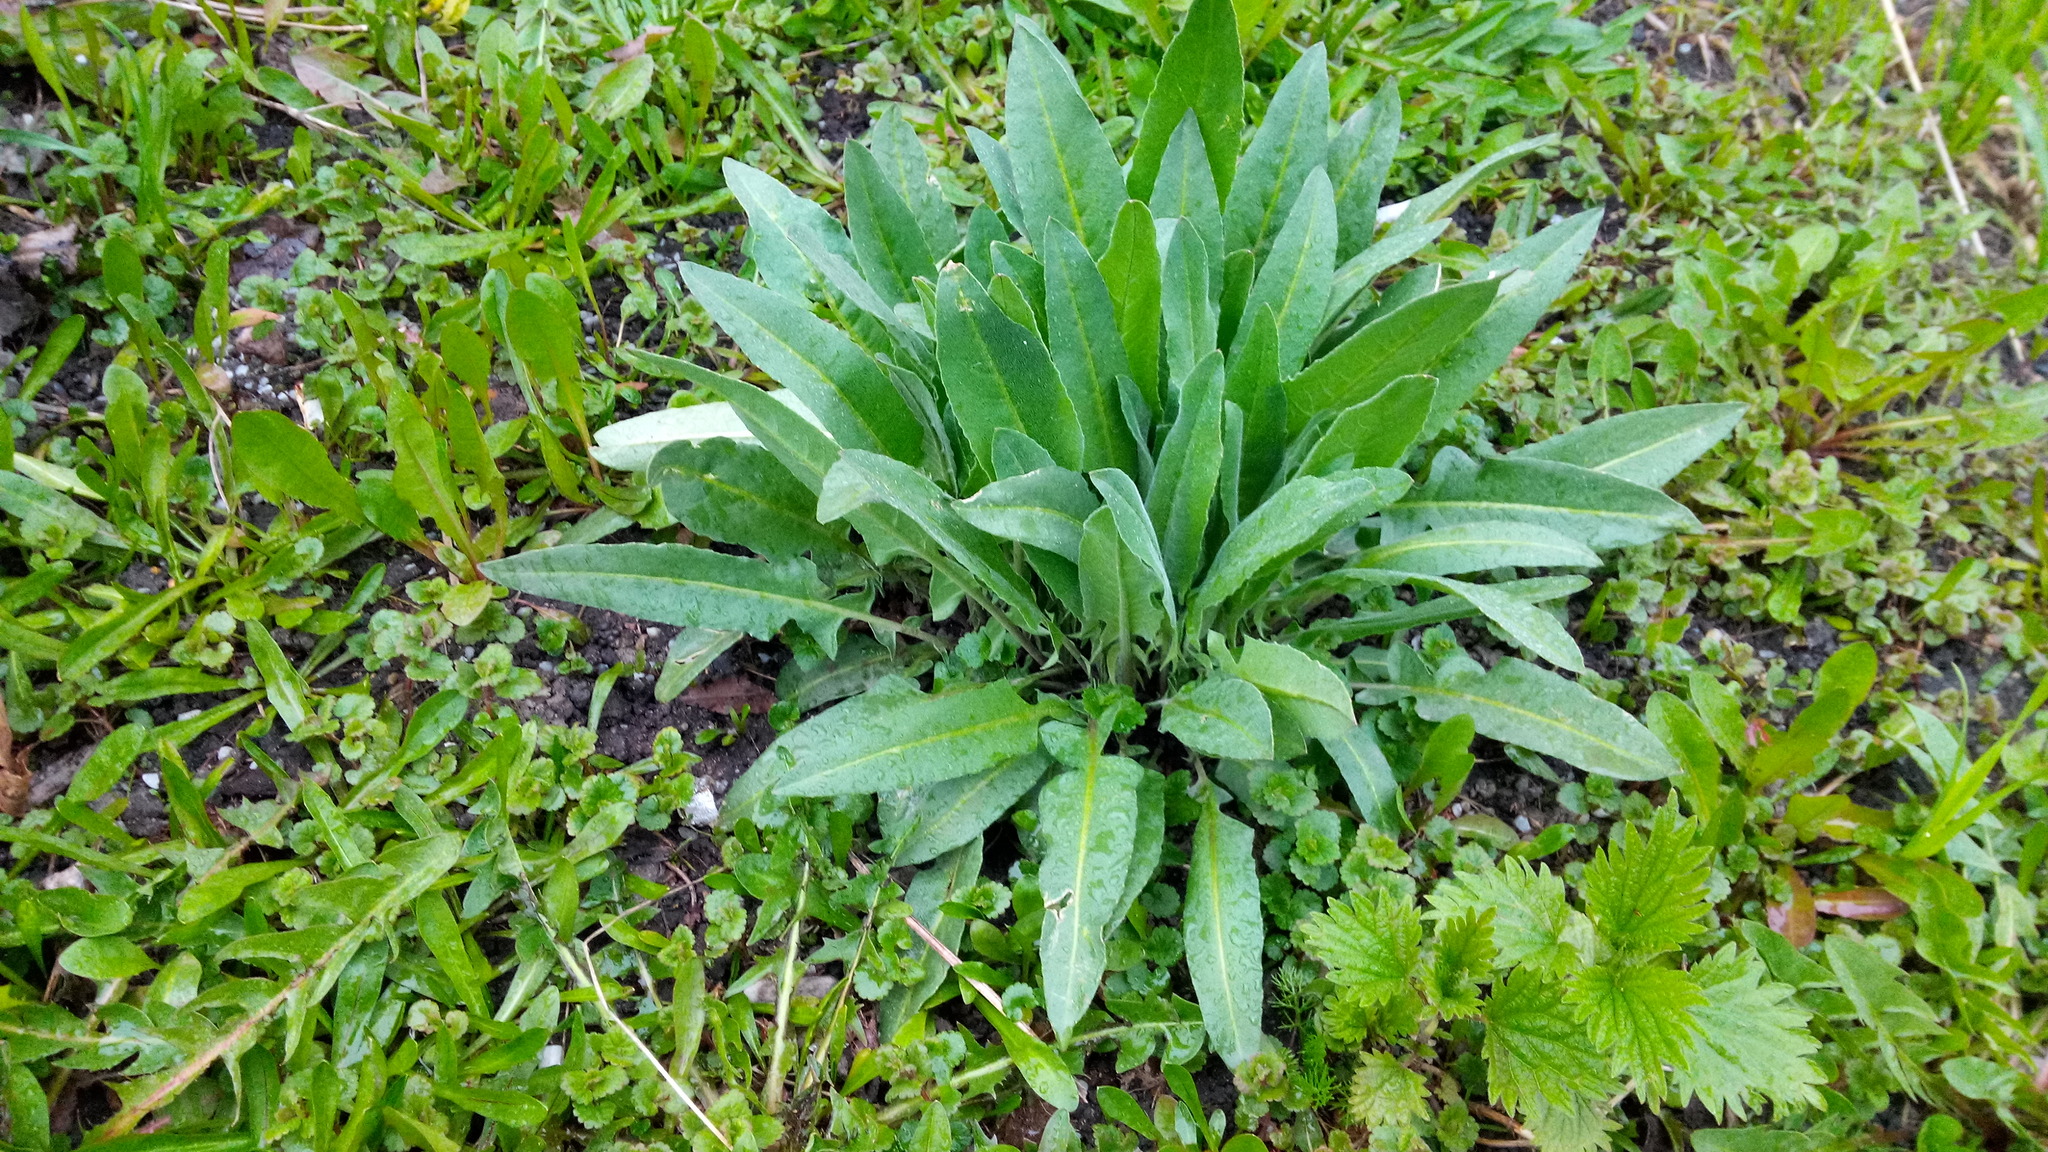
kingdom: Plantae
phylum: Tracheophyta
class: Magnoliopsida
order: Brassicales
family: Brassicaceae
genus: Bunias
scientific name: Bunias orientalis
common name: Warty-cabbage
